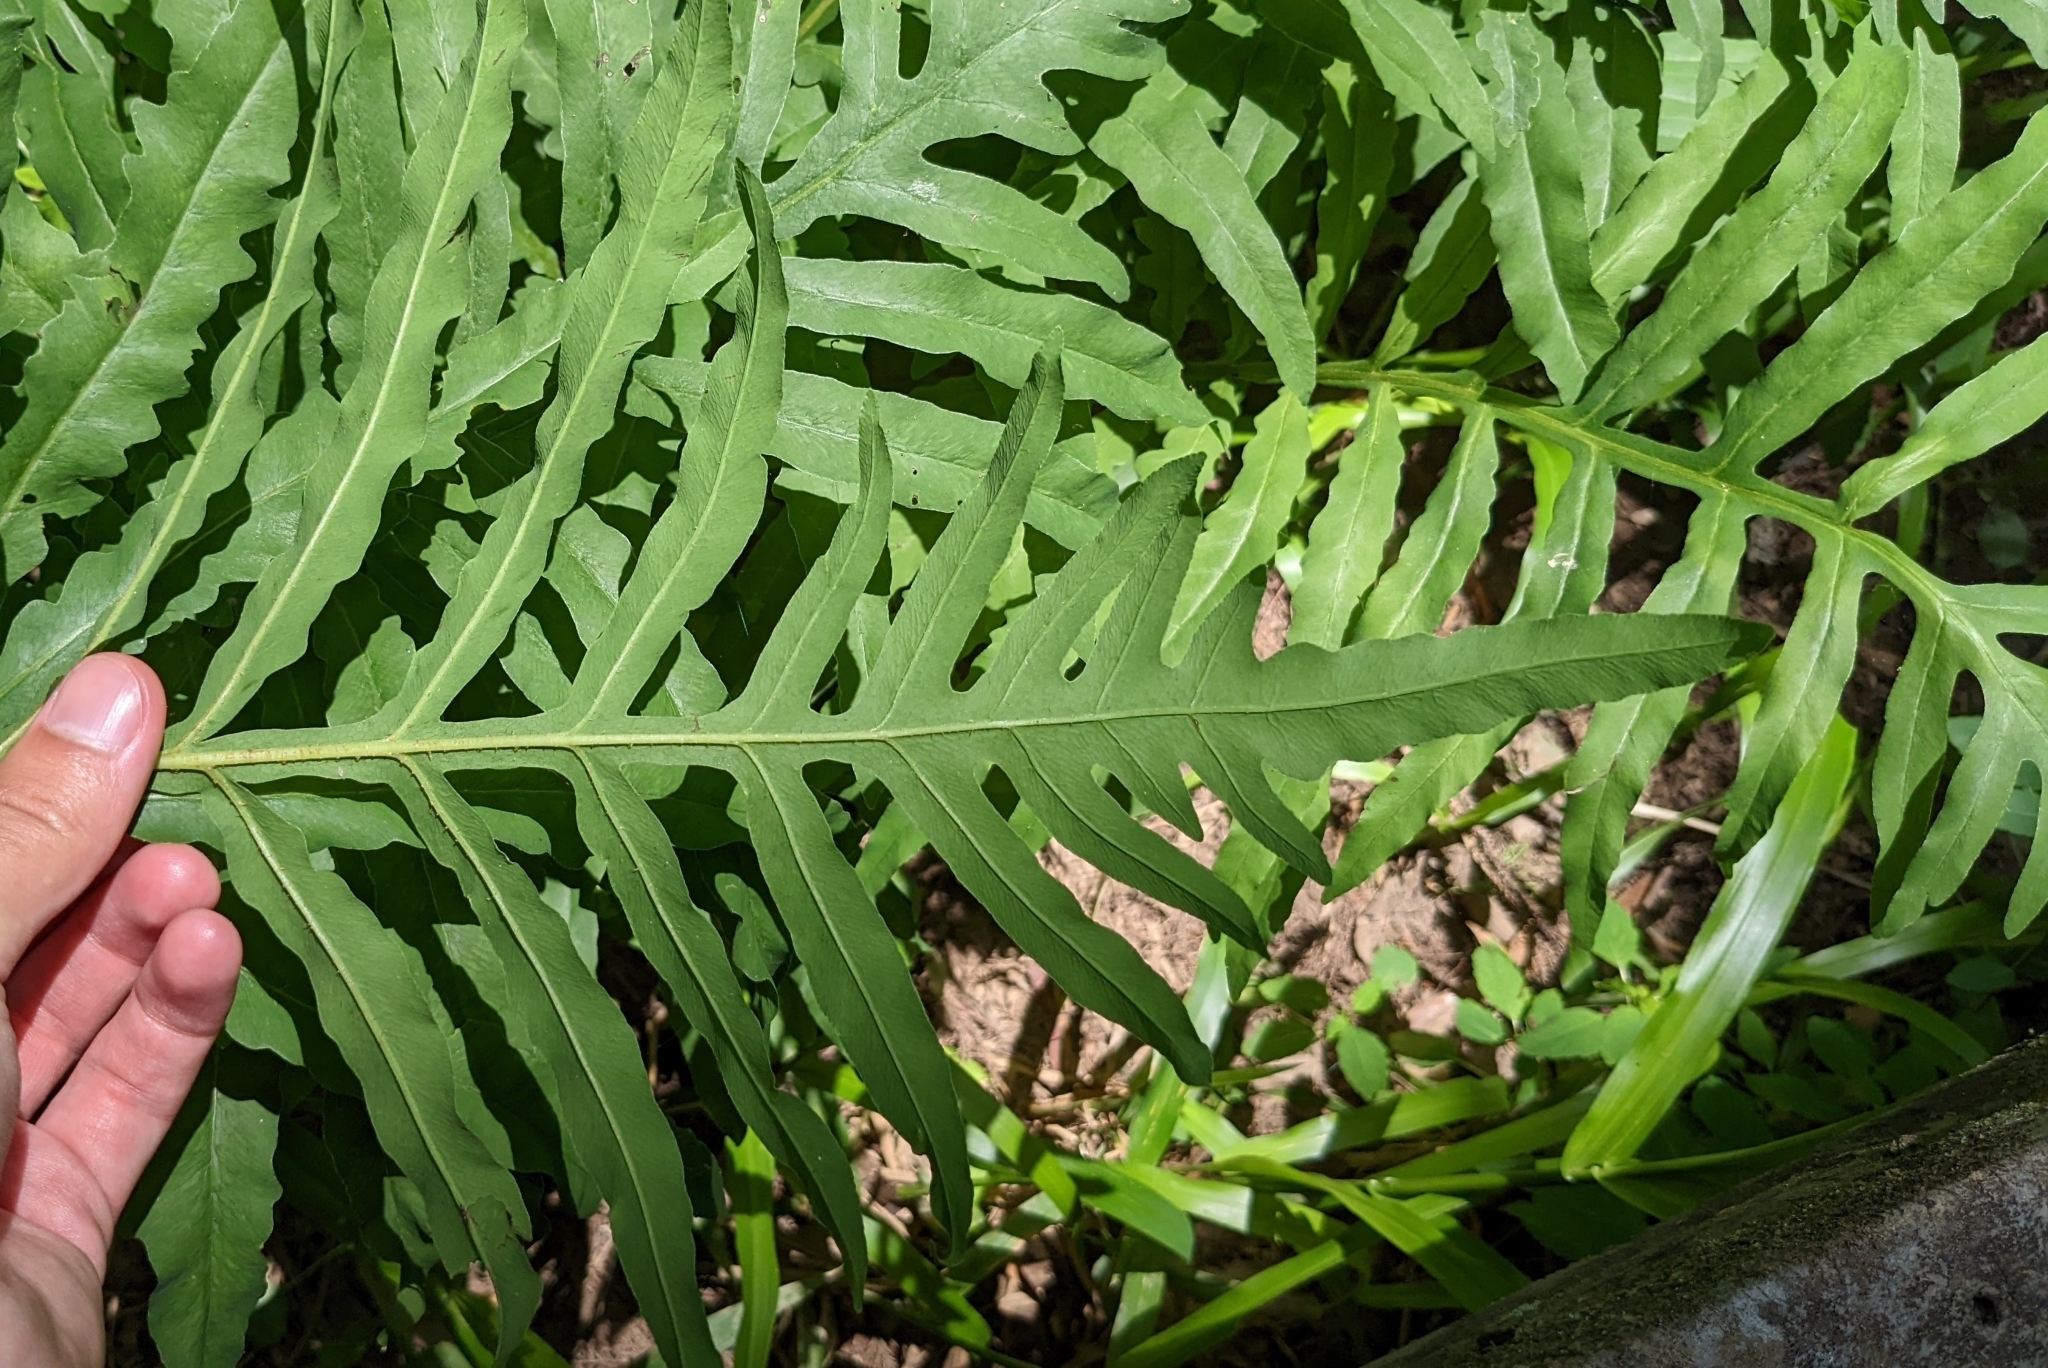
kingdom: Plantae
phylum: Tracheophyta
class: Polypodiopsida
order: Polypodiales
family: Onocleaceae
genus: Onoclea
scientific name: Onoclea sensibilis
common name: Sensitive fern
